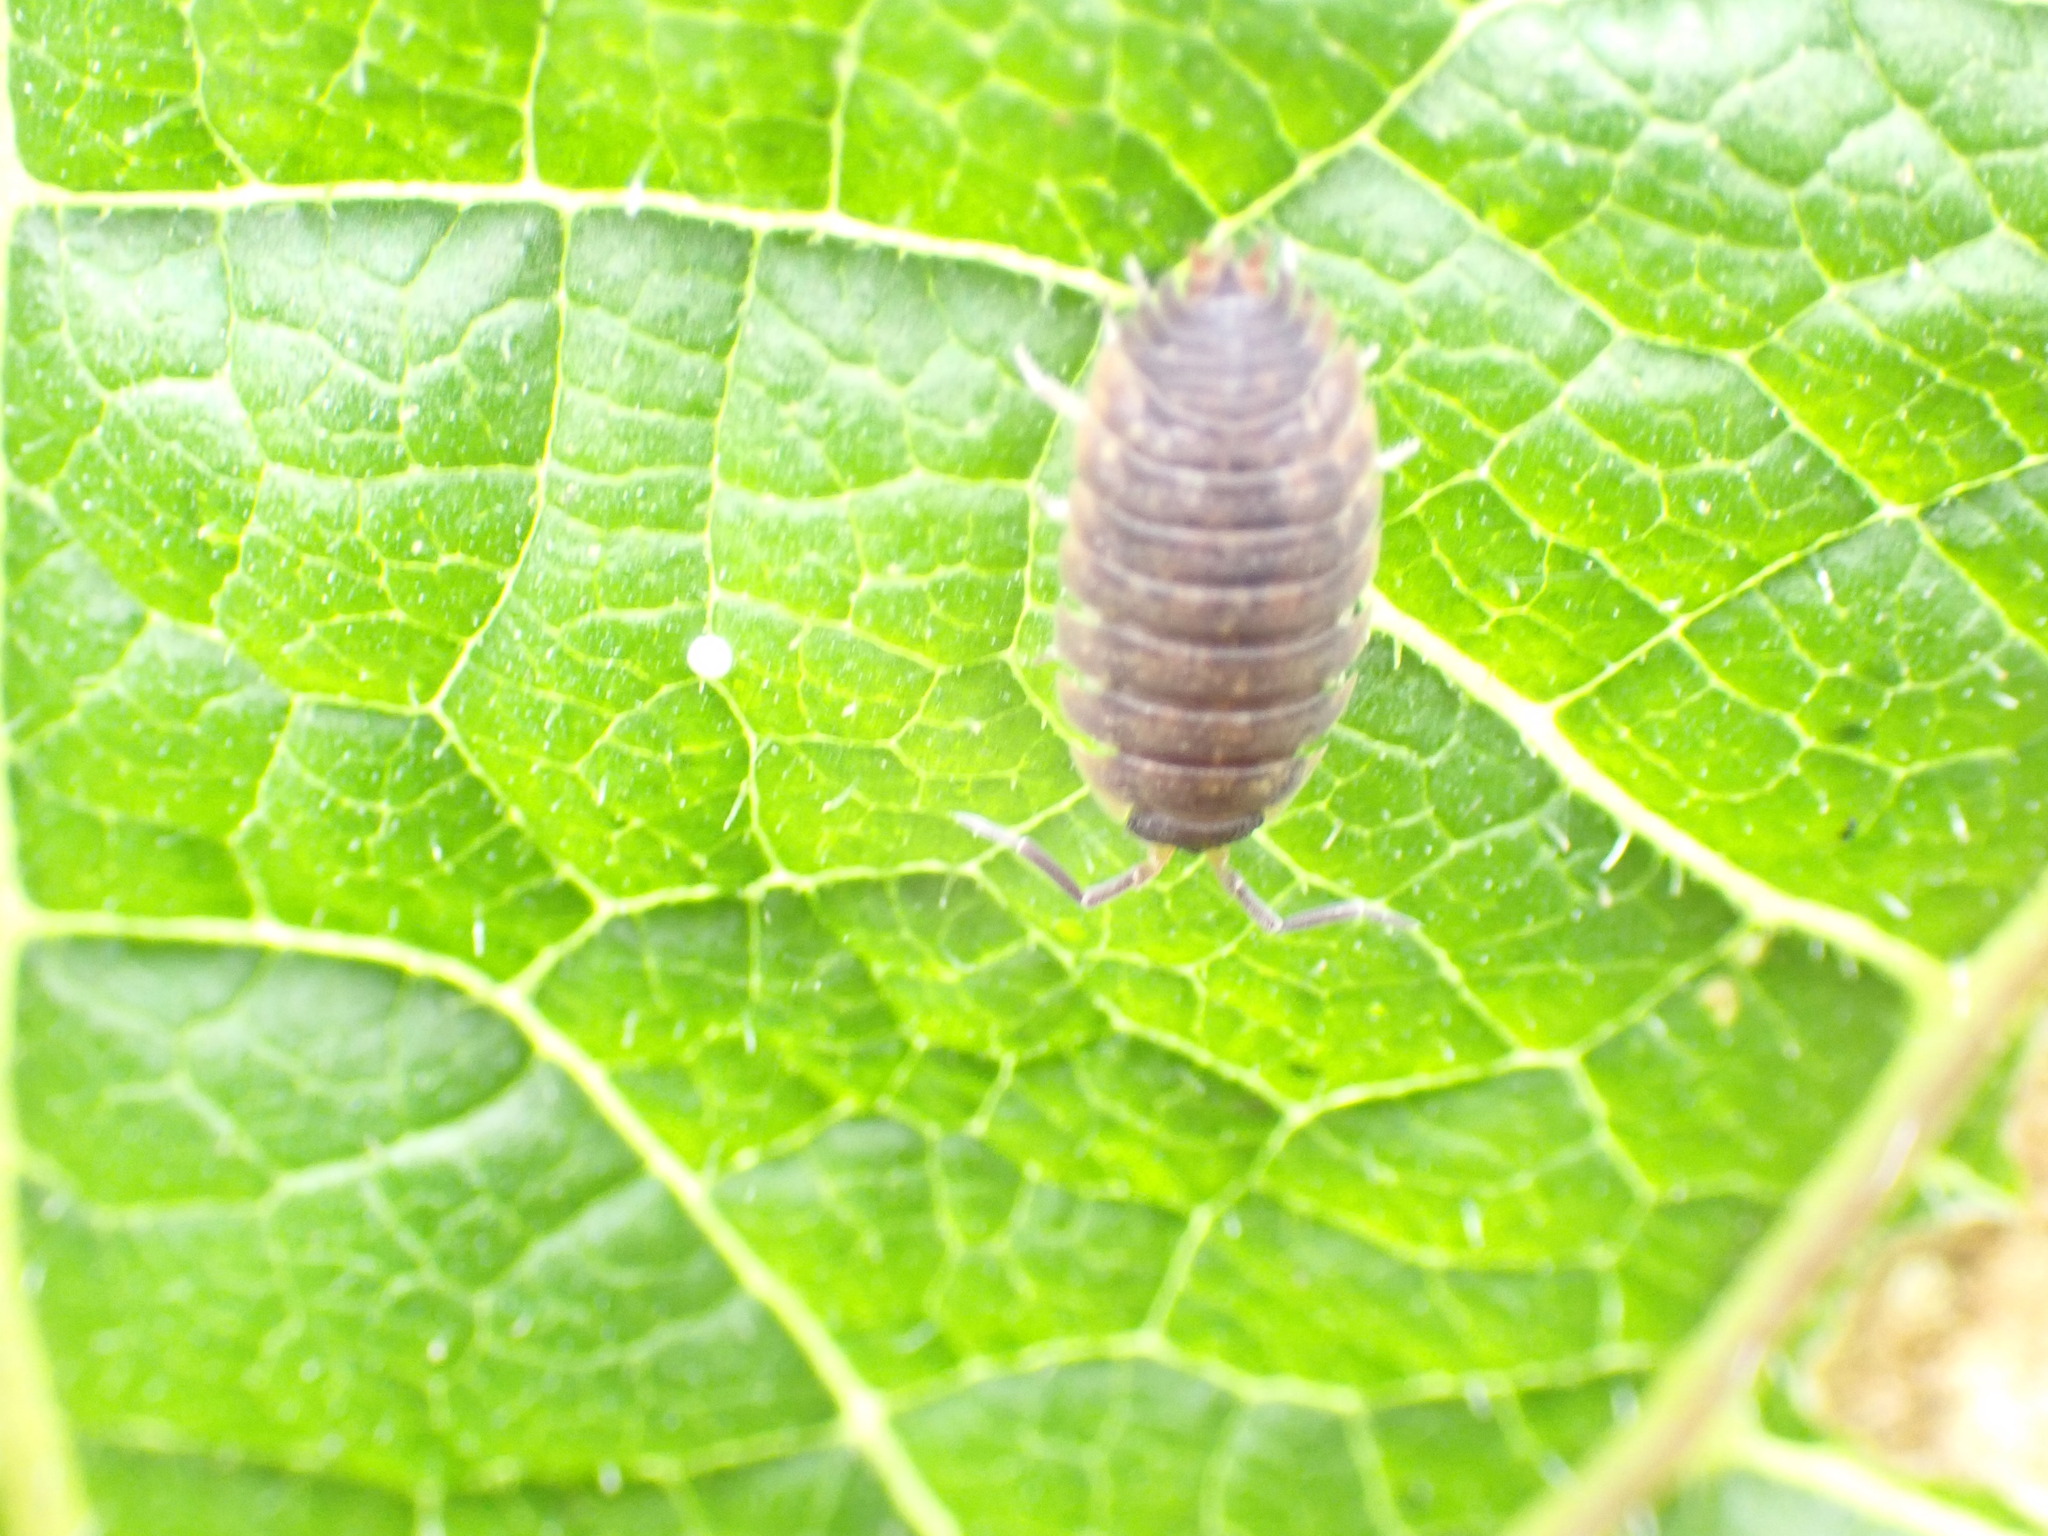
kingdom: Animalia
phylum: Arthropoda
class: Malacostraca
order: Isopoda
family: Porcellionidae
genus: Porcellio
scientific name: Porcellio scaber
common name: Common rough woodlouse
